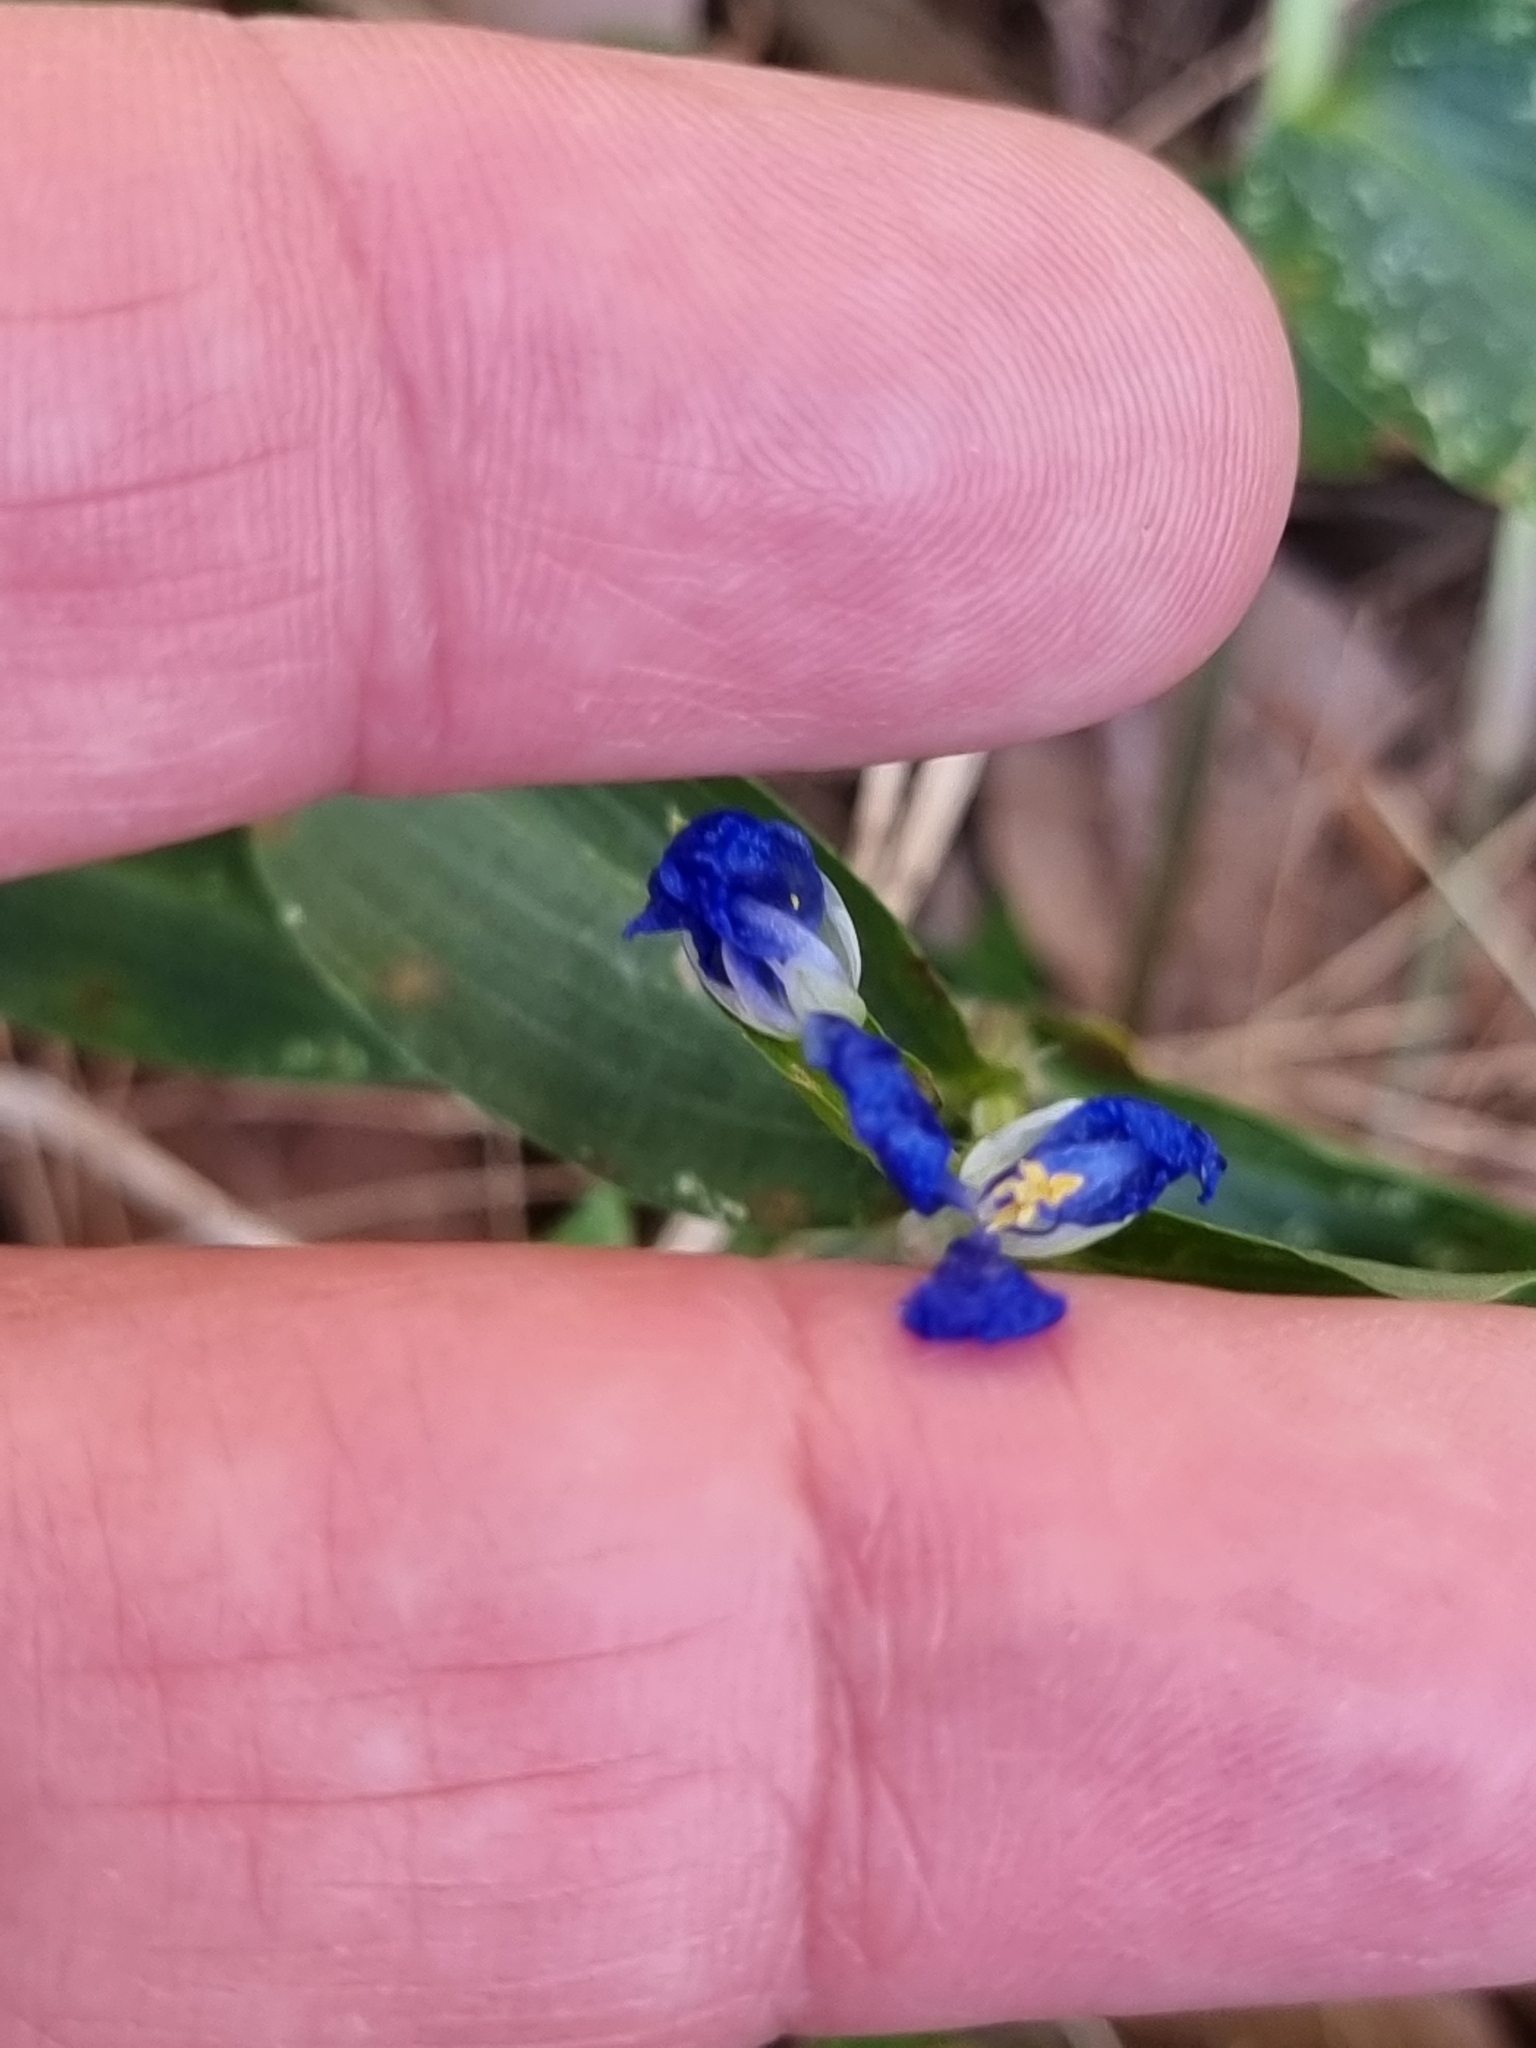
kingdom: Plantae
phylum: Tracheophyta
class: Liliopsida
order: Commelinales
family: Commelinaceae
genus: Commelina
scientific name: Commelina cyanea
